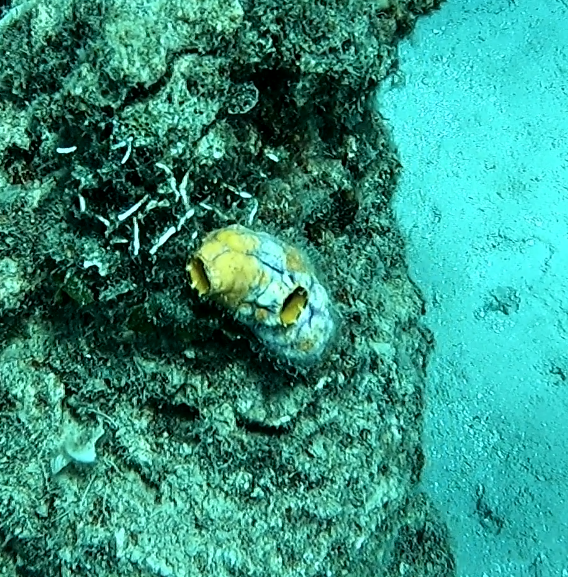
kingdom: Animalia
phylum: Chordata
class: Ascidiacea
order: Stolidobranchia
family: Styelidae
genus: Polycarpa
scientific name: Polycarpa aurata
